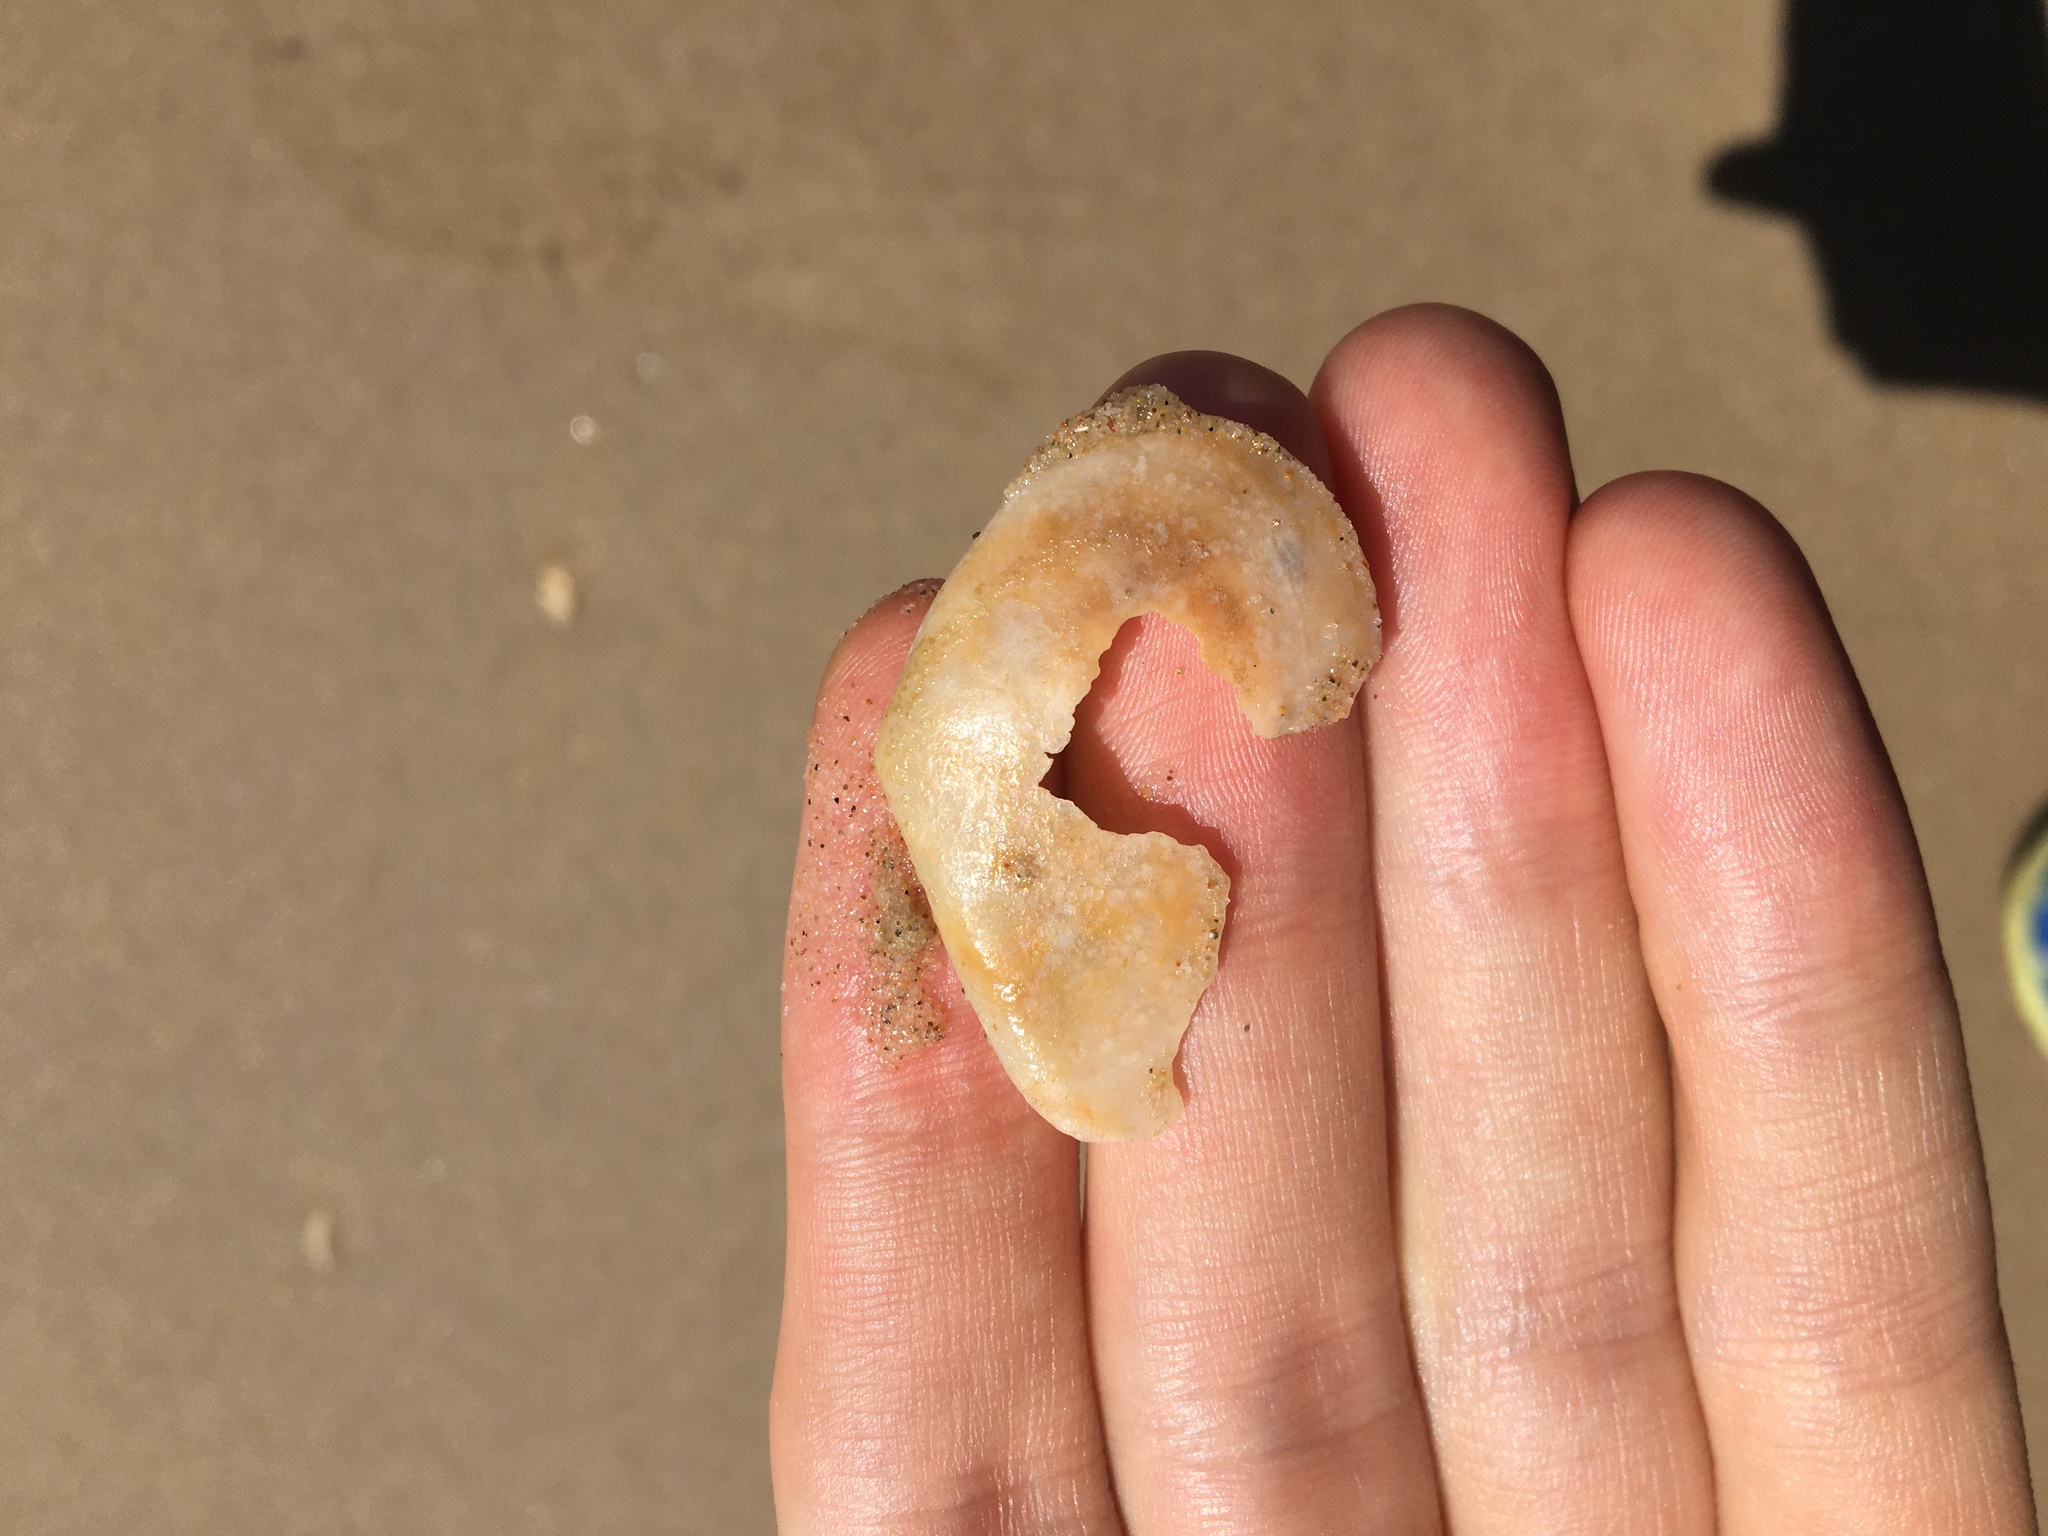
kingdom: Animalia
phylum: Mollusca
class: Bivalvia
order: Cardiida
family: Tellinidae
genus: Macomona
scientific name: Macomona deltoidalis
